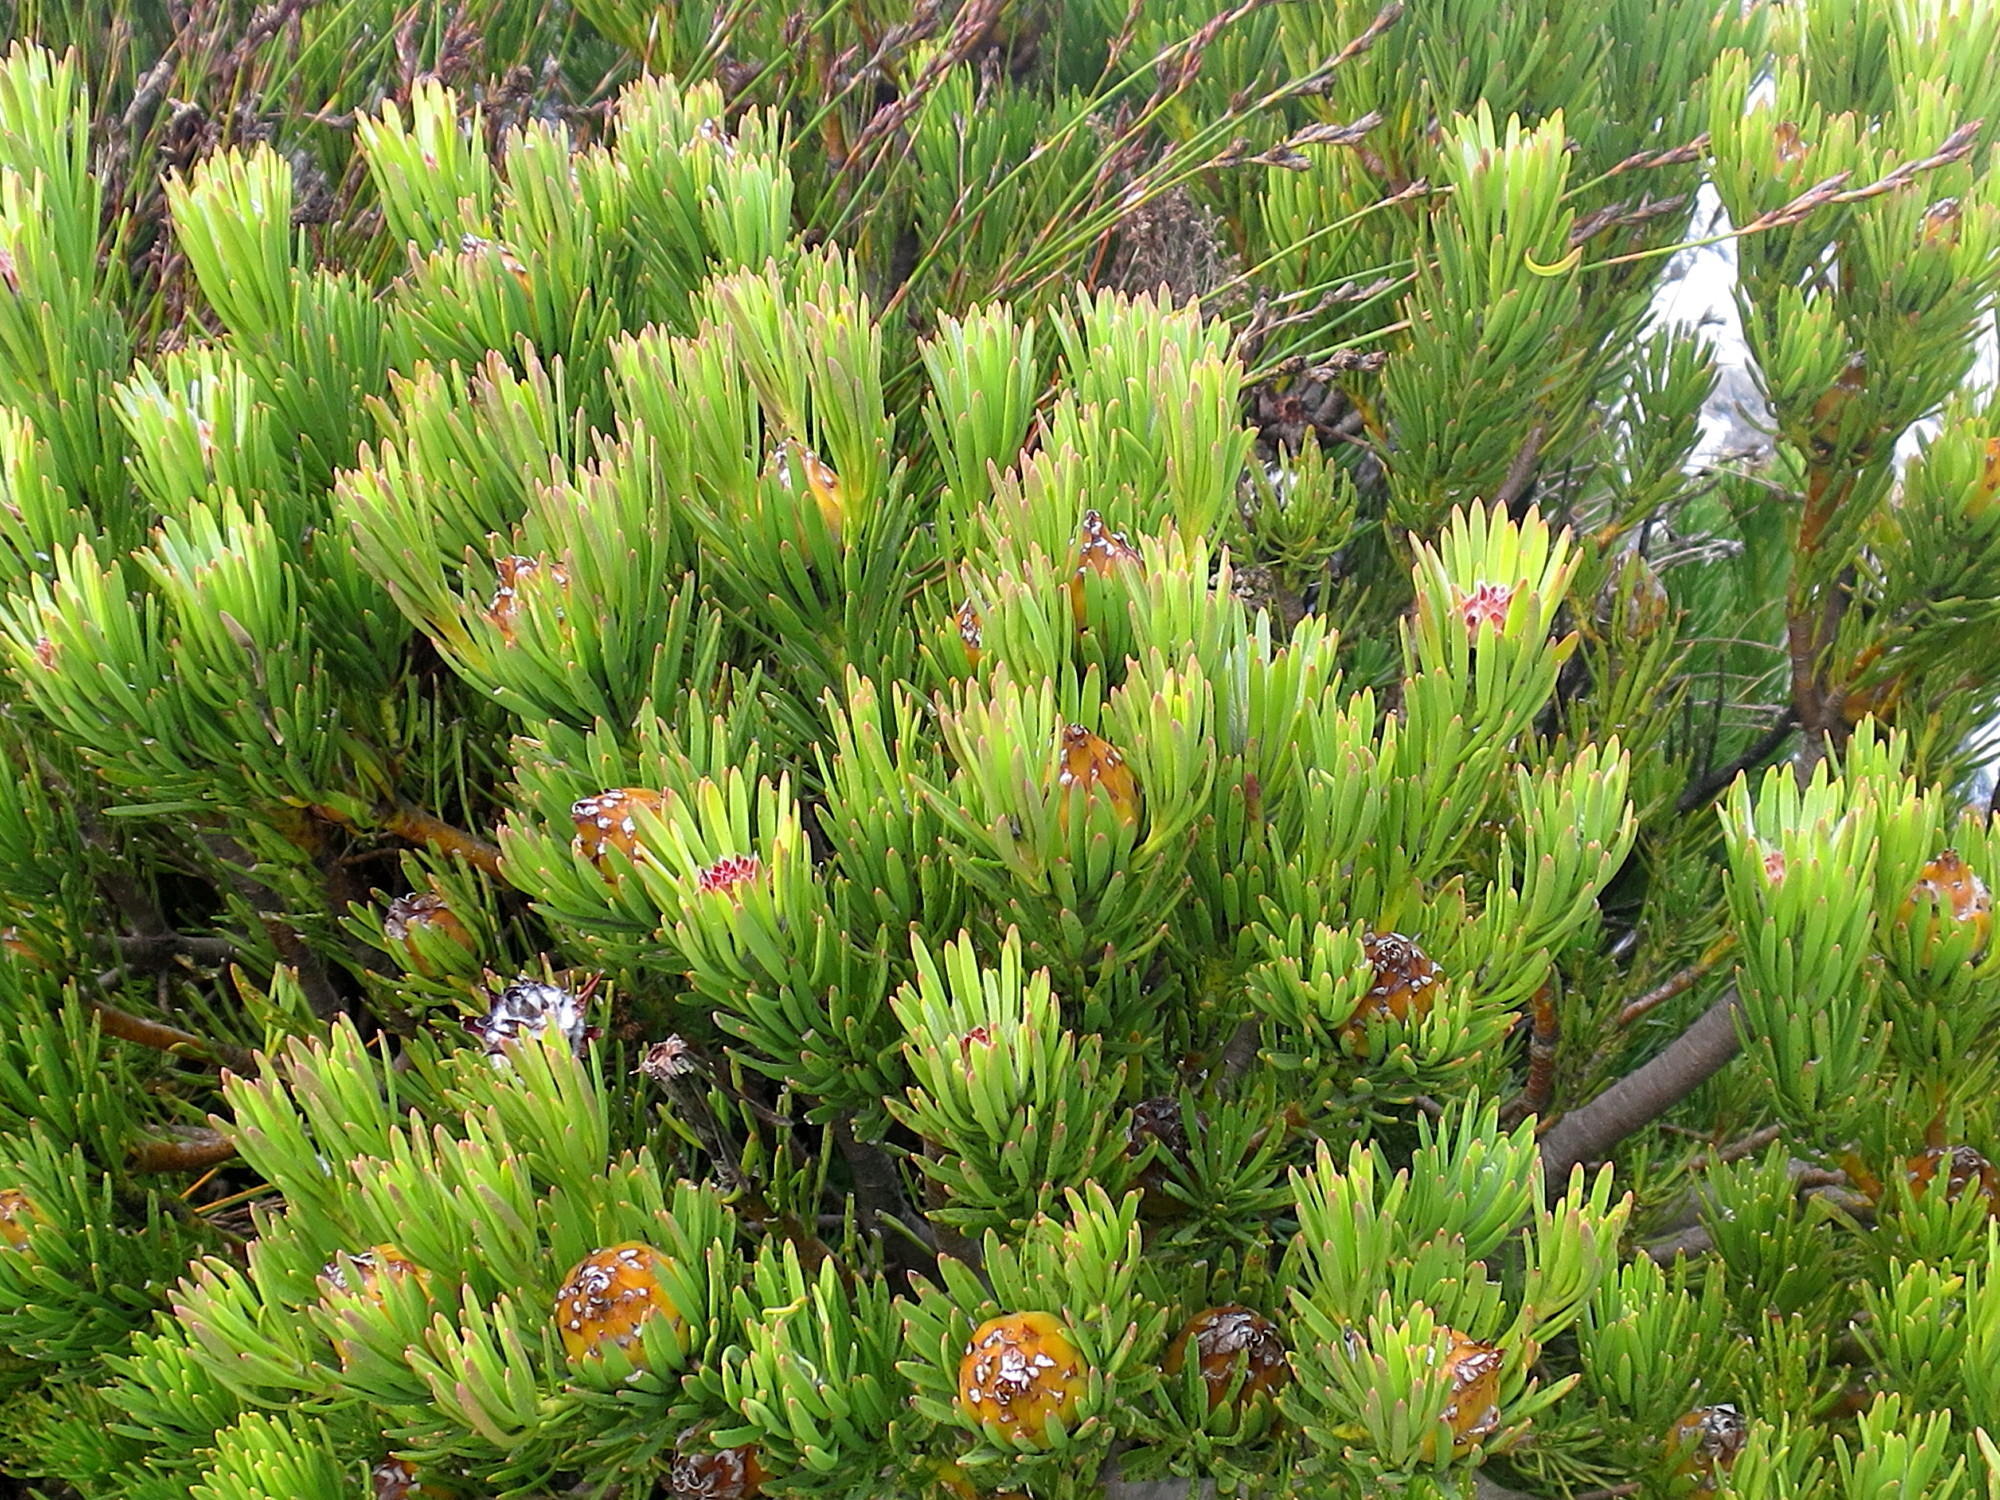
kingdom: Plantae
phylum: Tracheophyta
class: Magnoliopsida
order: Proteales
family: Proteaceae
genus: Leucadendron
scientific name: Leucadendron dregei
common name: Summit conebush
